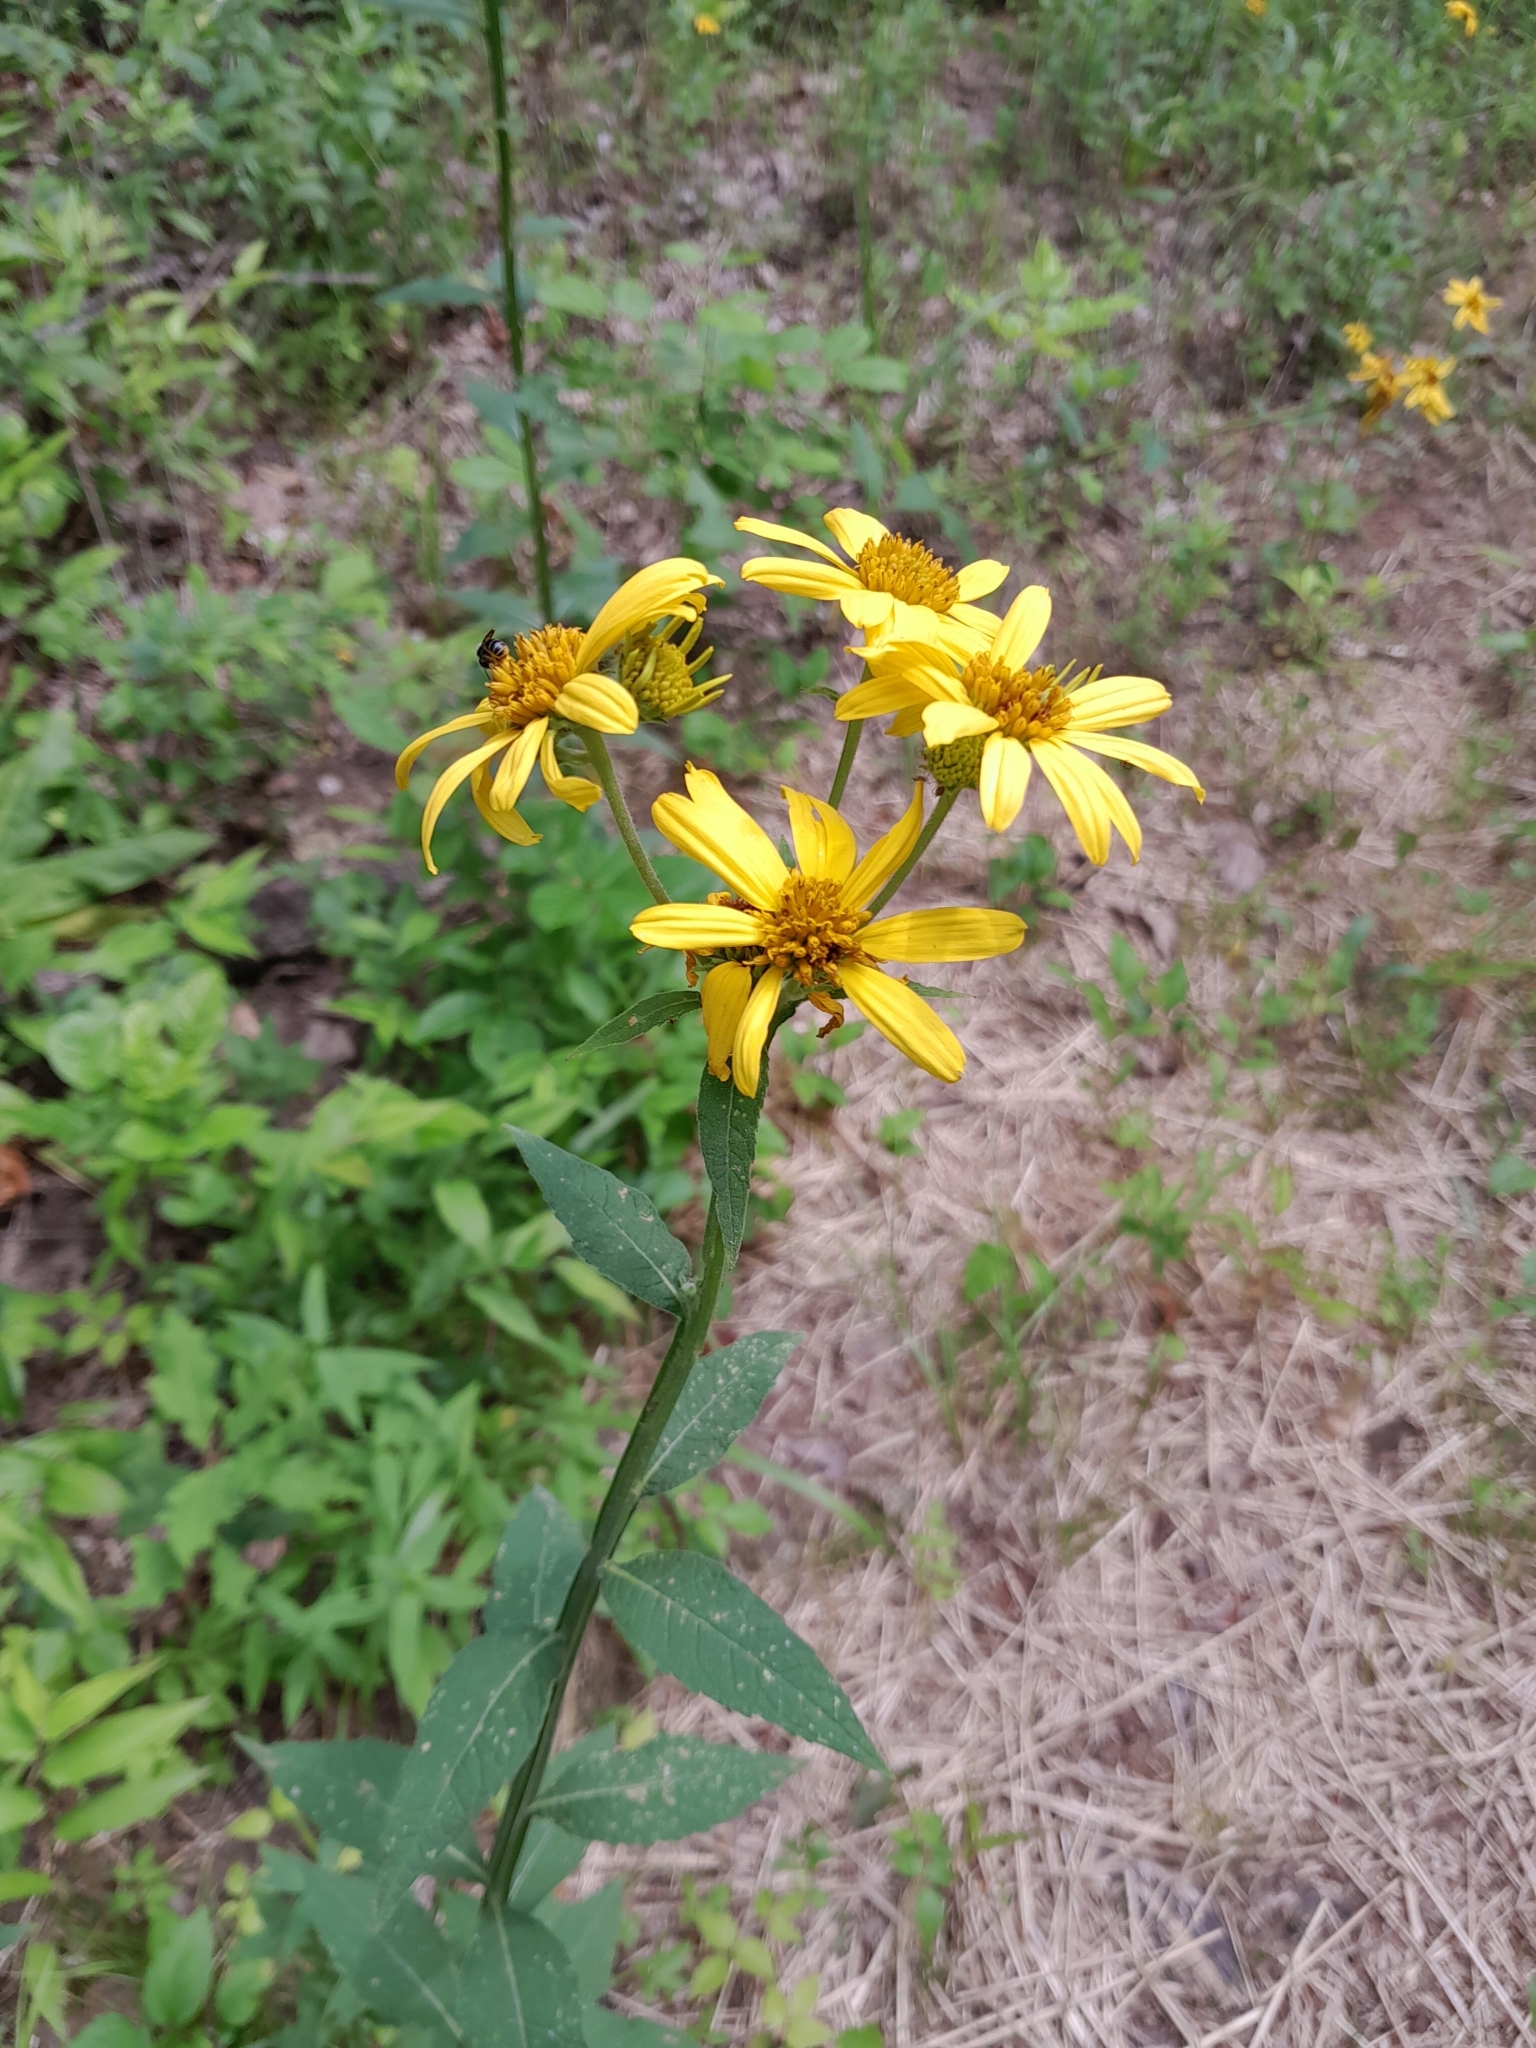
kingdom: Plantae
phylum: Tracheophyta
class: Magnoliopsida
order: Asterales
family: Asteraceae
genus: Verbesina
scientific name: Verbesina helianthoides
